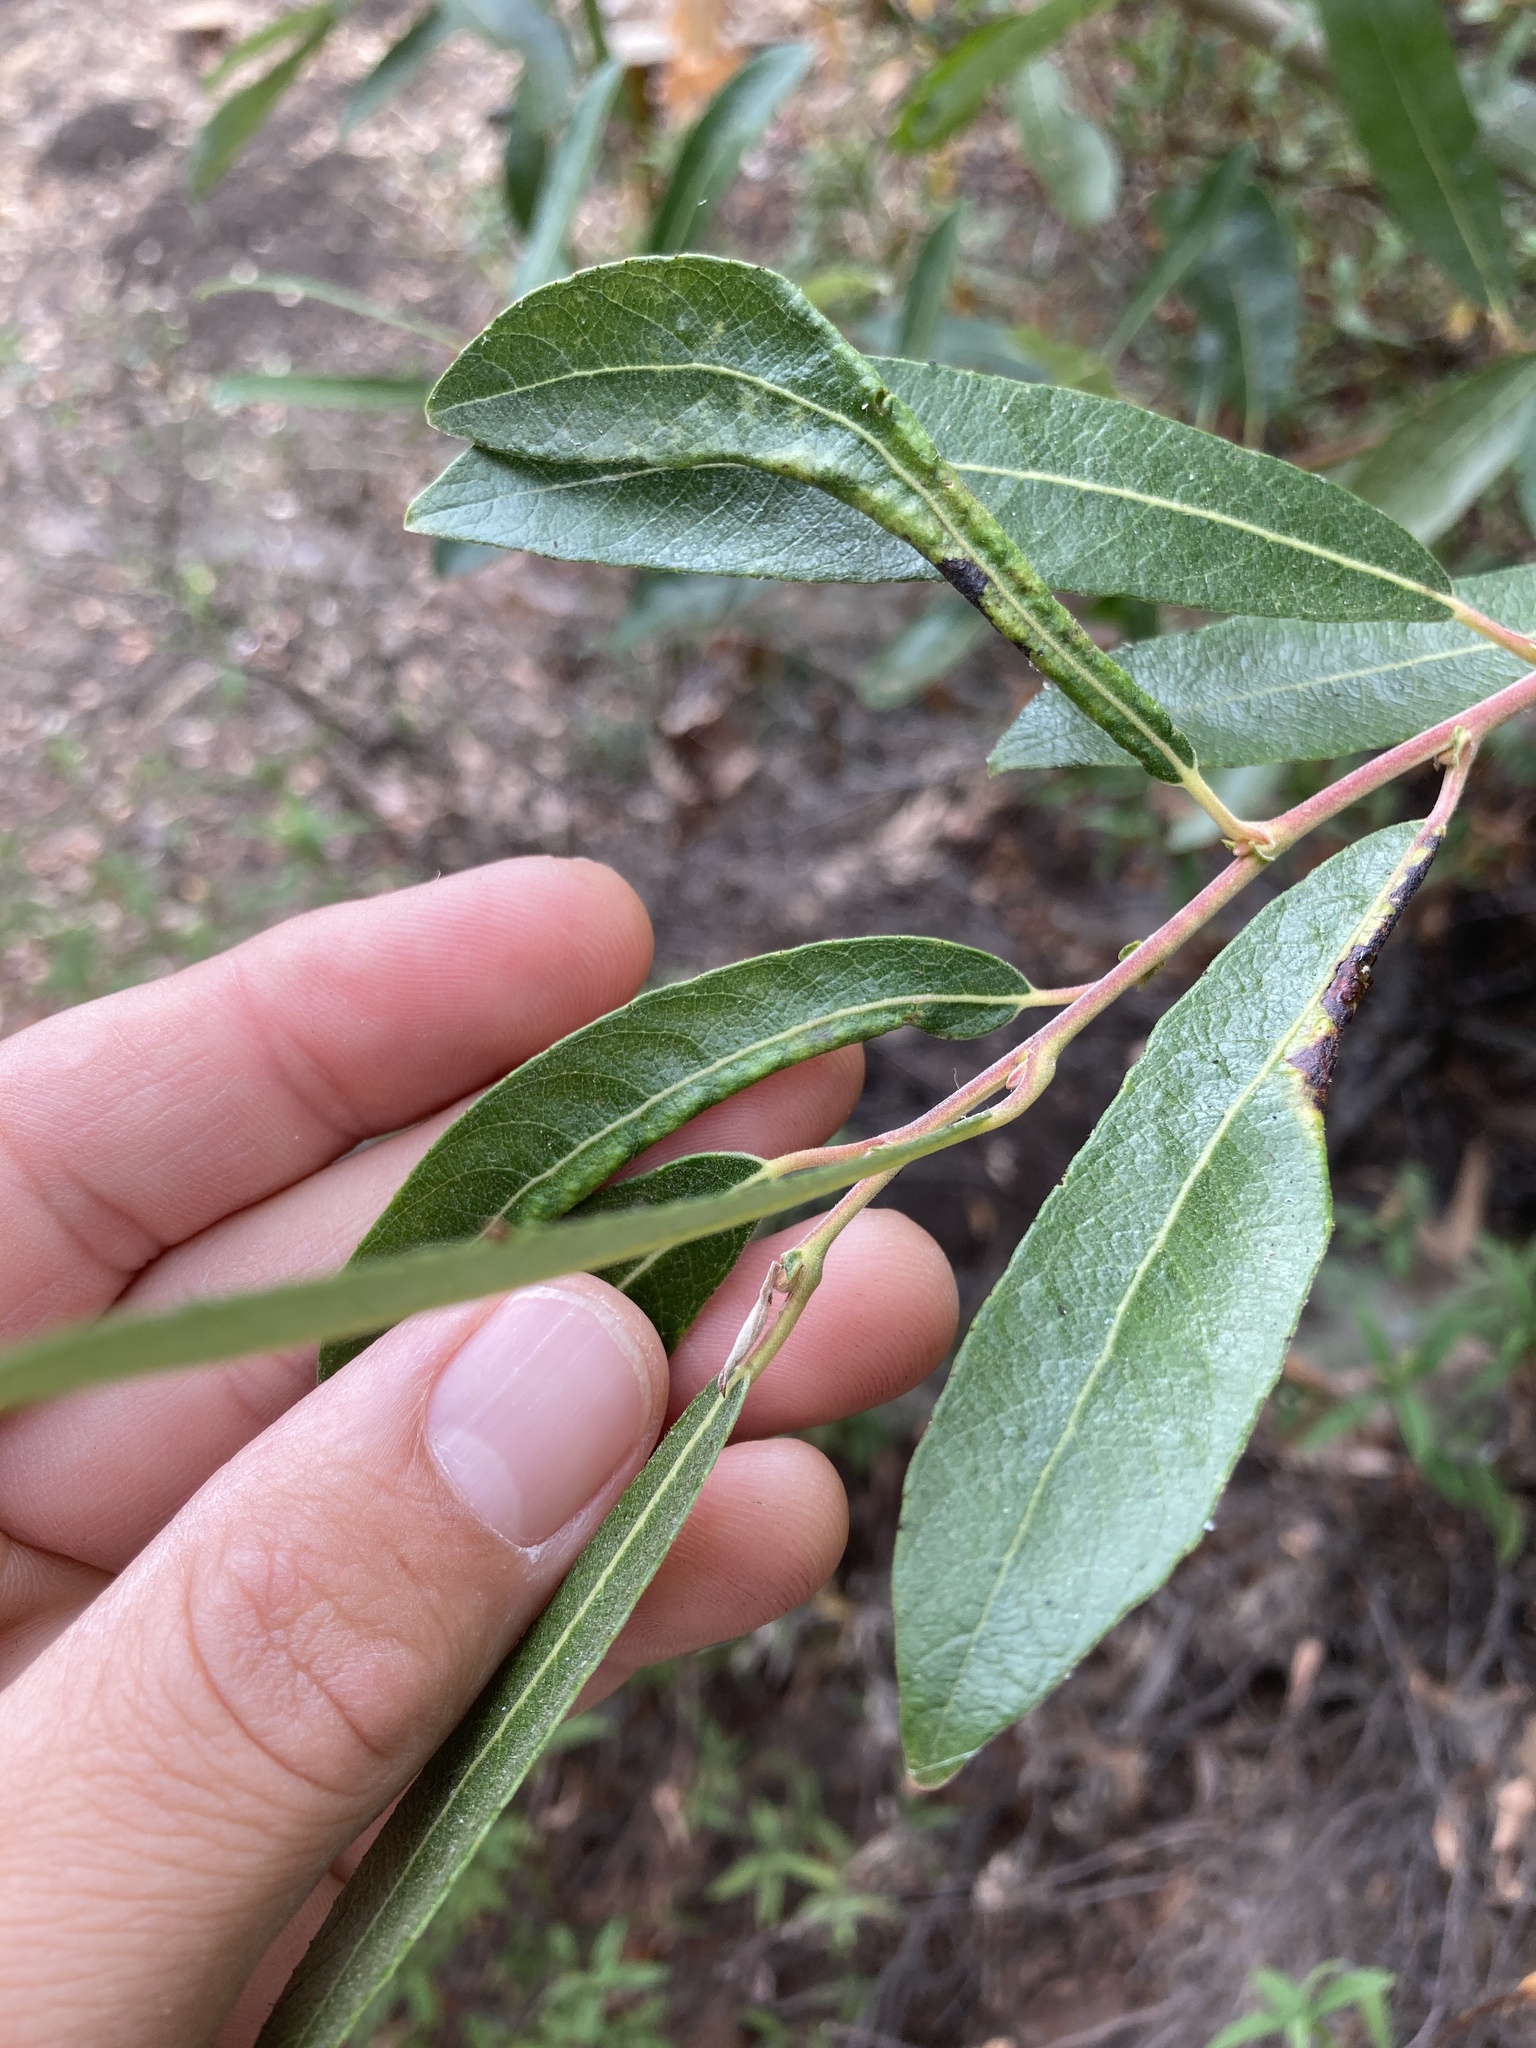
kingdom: Plantae
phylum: Tracheophyta
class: Magnoliopsida
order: Malpighiales
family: Salicaceae
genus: Salix
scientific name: Salix lasiolepis
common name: Arroyo willow
